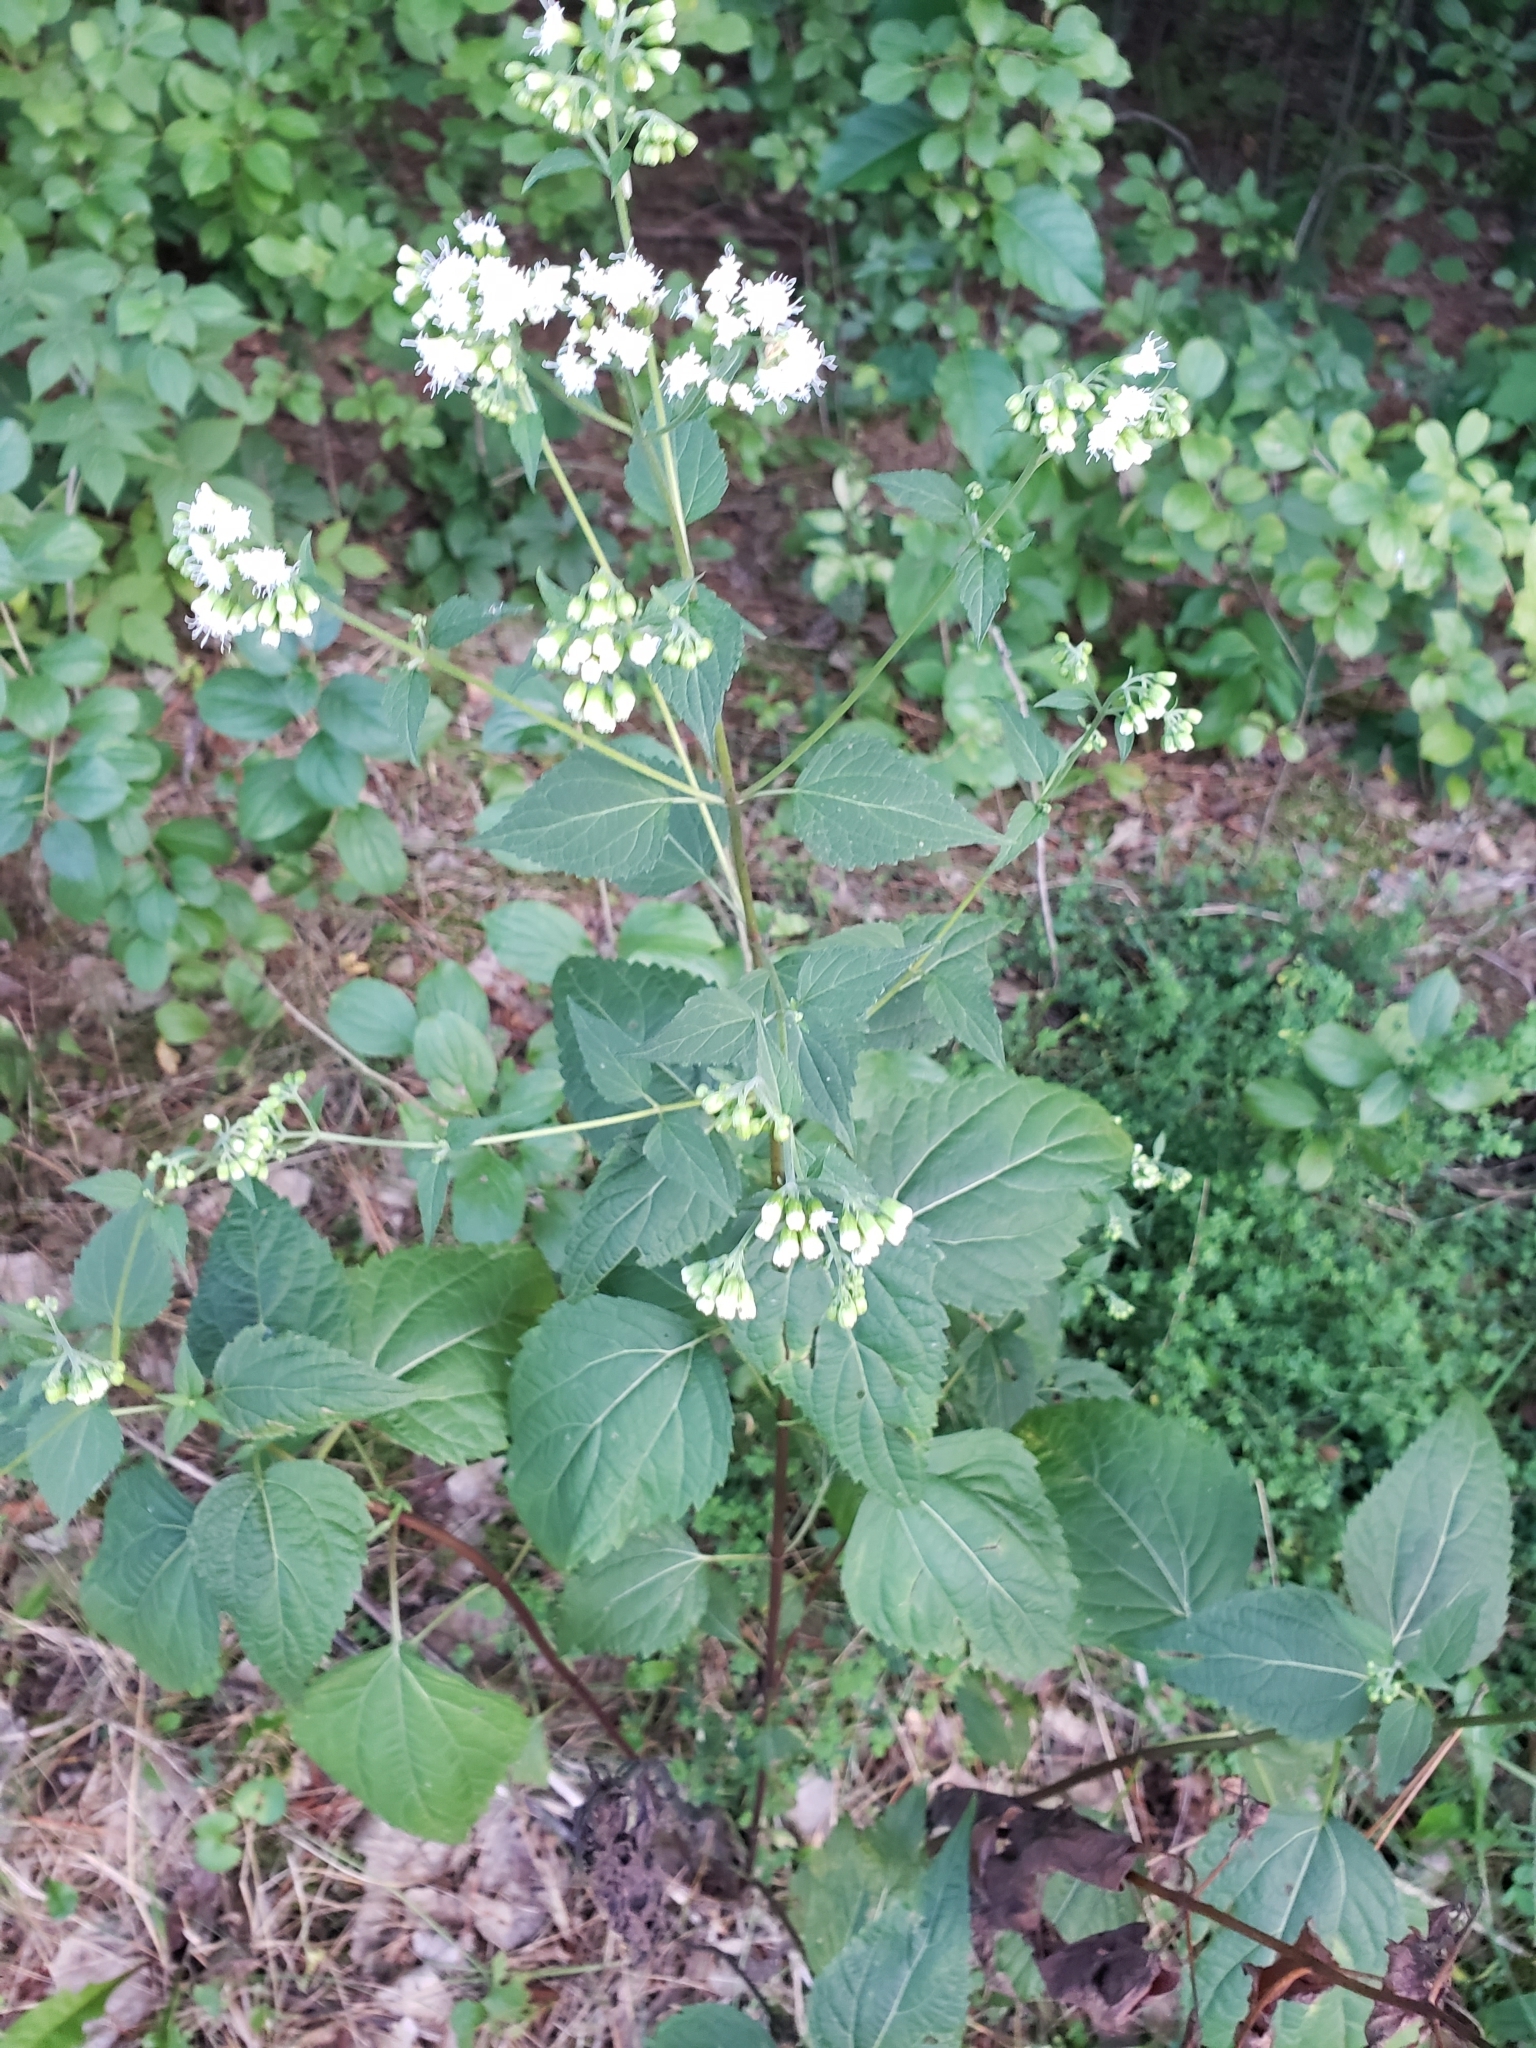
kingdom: Plantae
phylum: Tracheophyta
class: Magnoliopsida
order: Asterales
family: Asteraceae
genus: Ageratina
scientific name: Ageratina altissima
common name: White snakeroot
